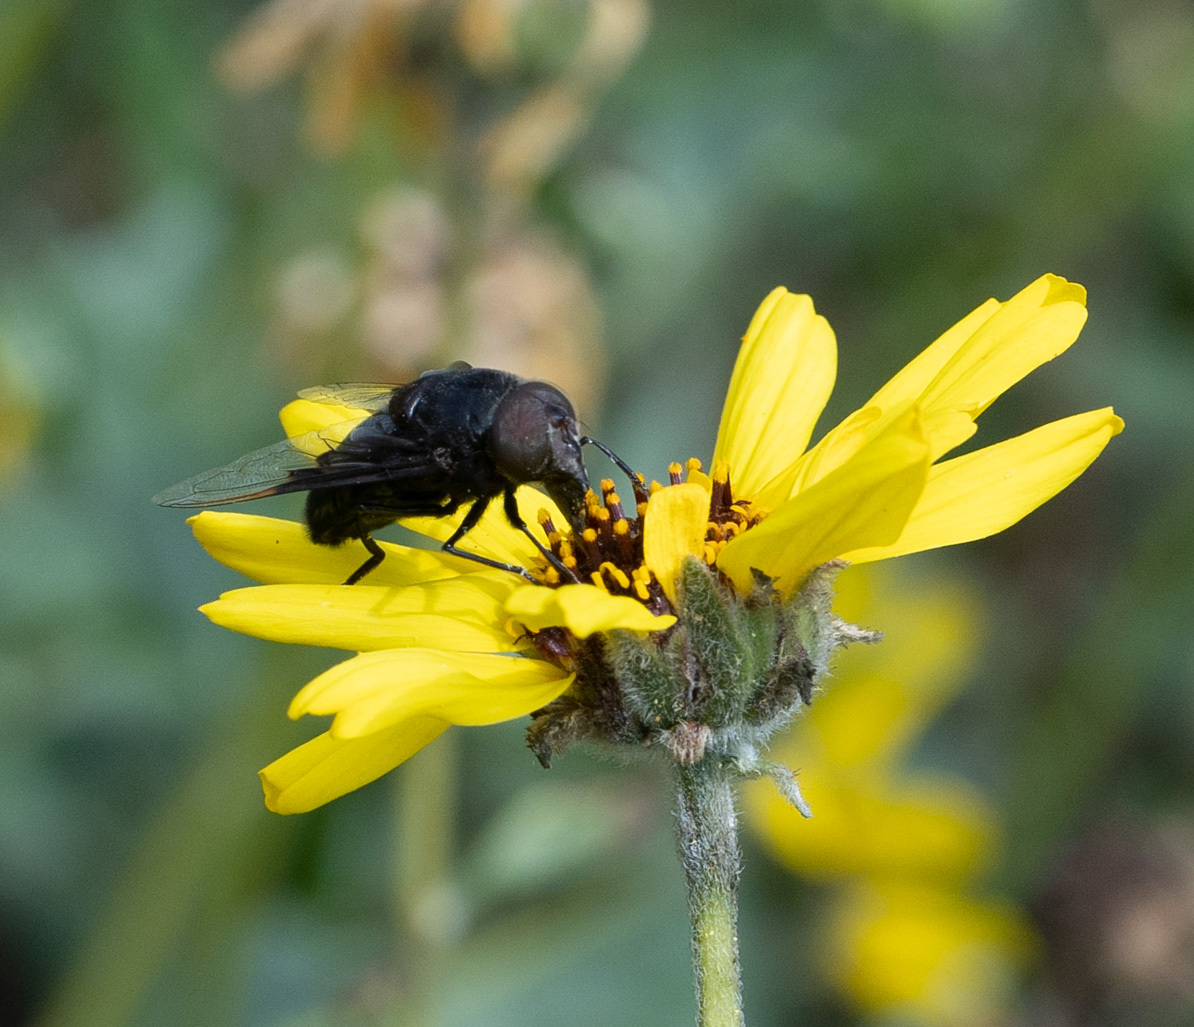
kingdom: Animalia
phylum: Arthropoda
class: Insecta
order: Diptera
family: Syrphidae
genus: Copestylum
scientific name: Copestylum mexicanum
